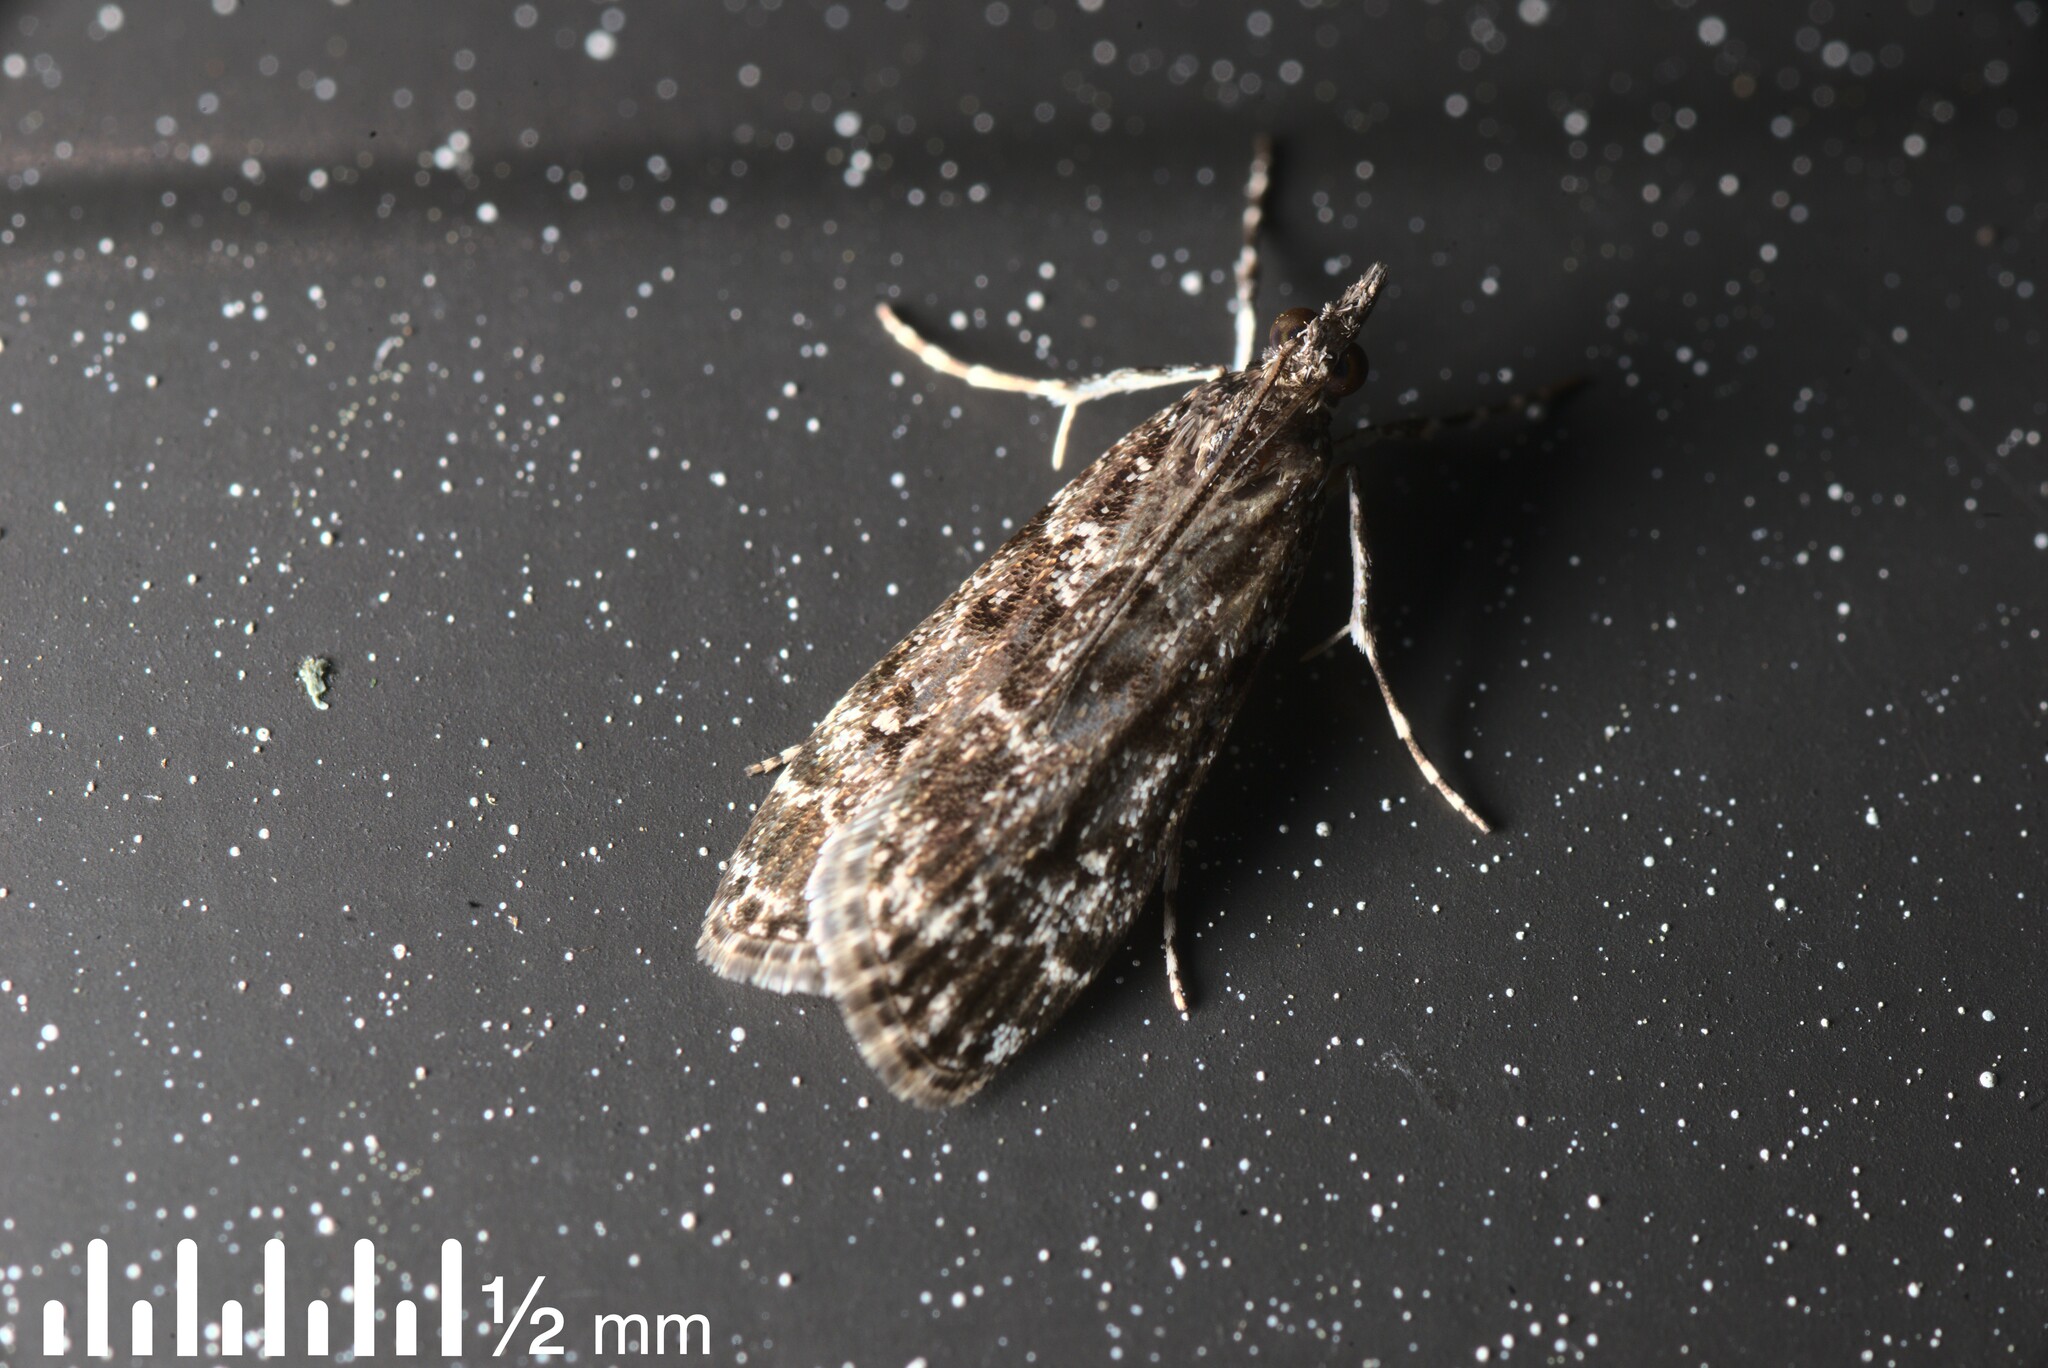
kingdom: Animalia
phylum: Arthropoda
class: Insecta
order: Lepidoptera
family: Crambidae
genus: Eudonia
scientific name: Eudonia philerga
